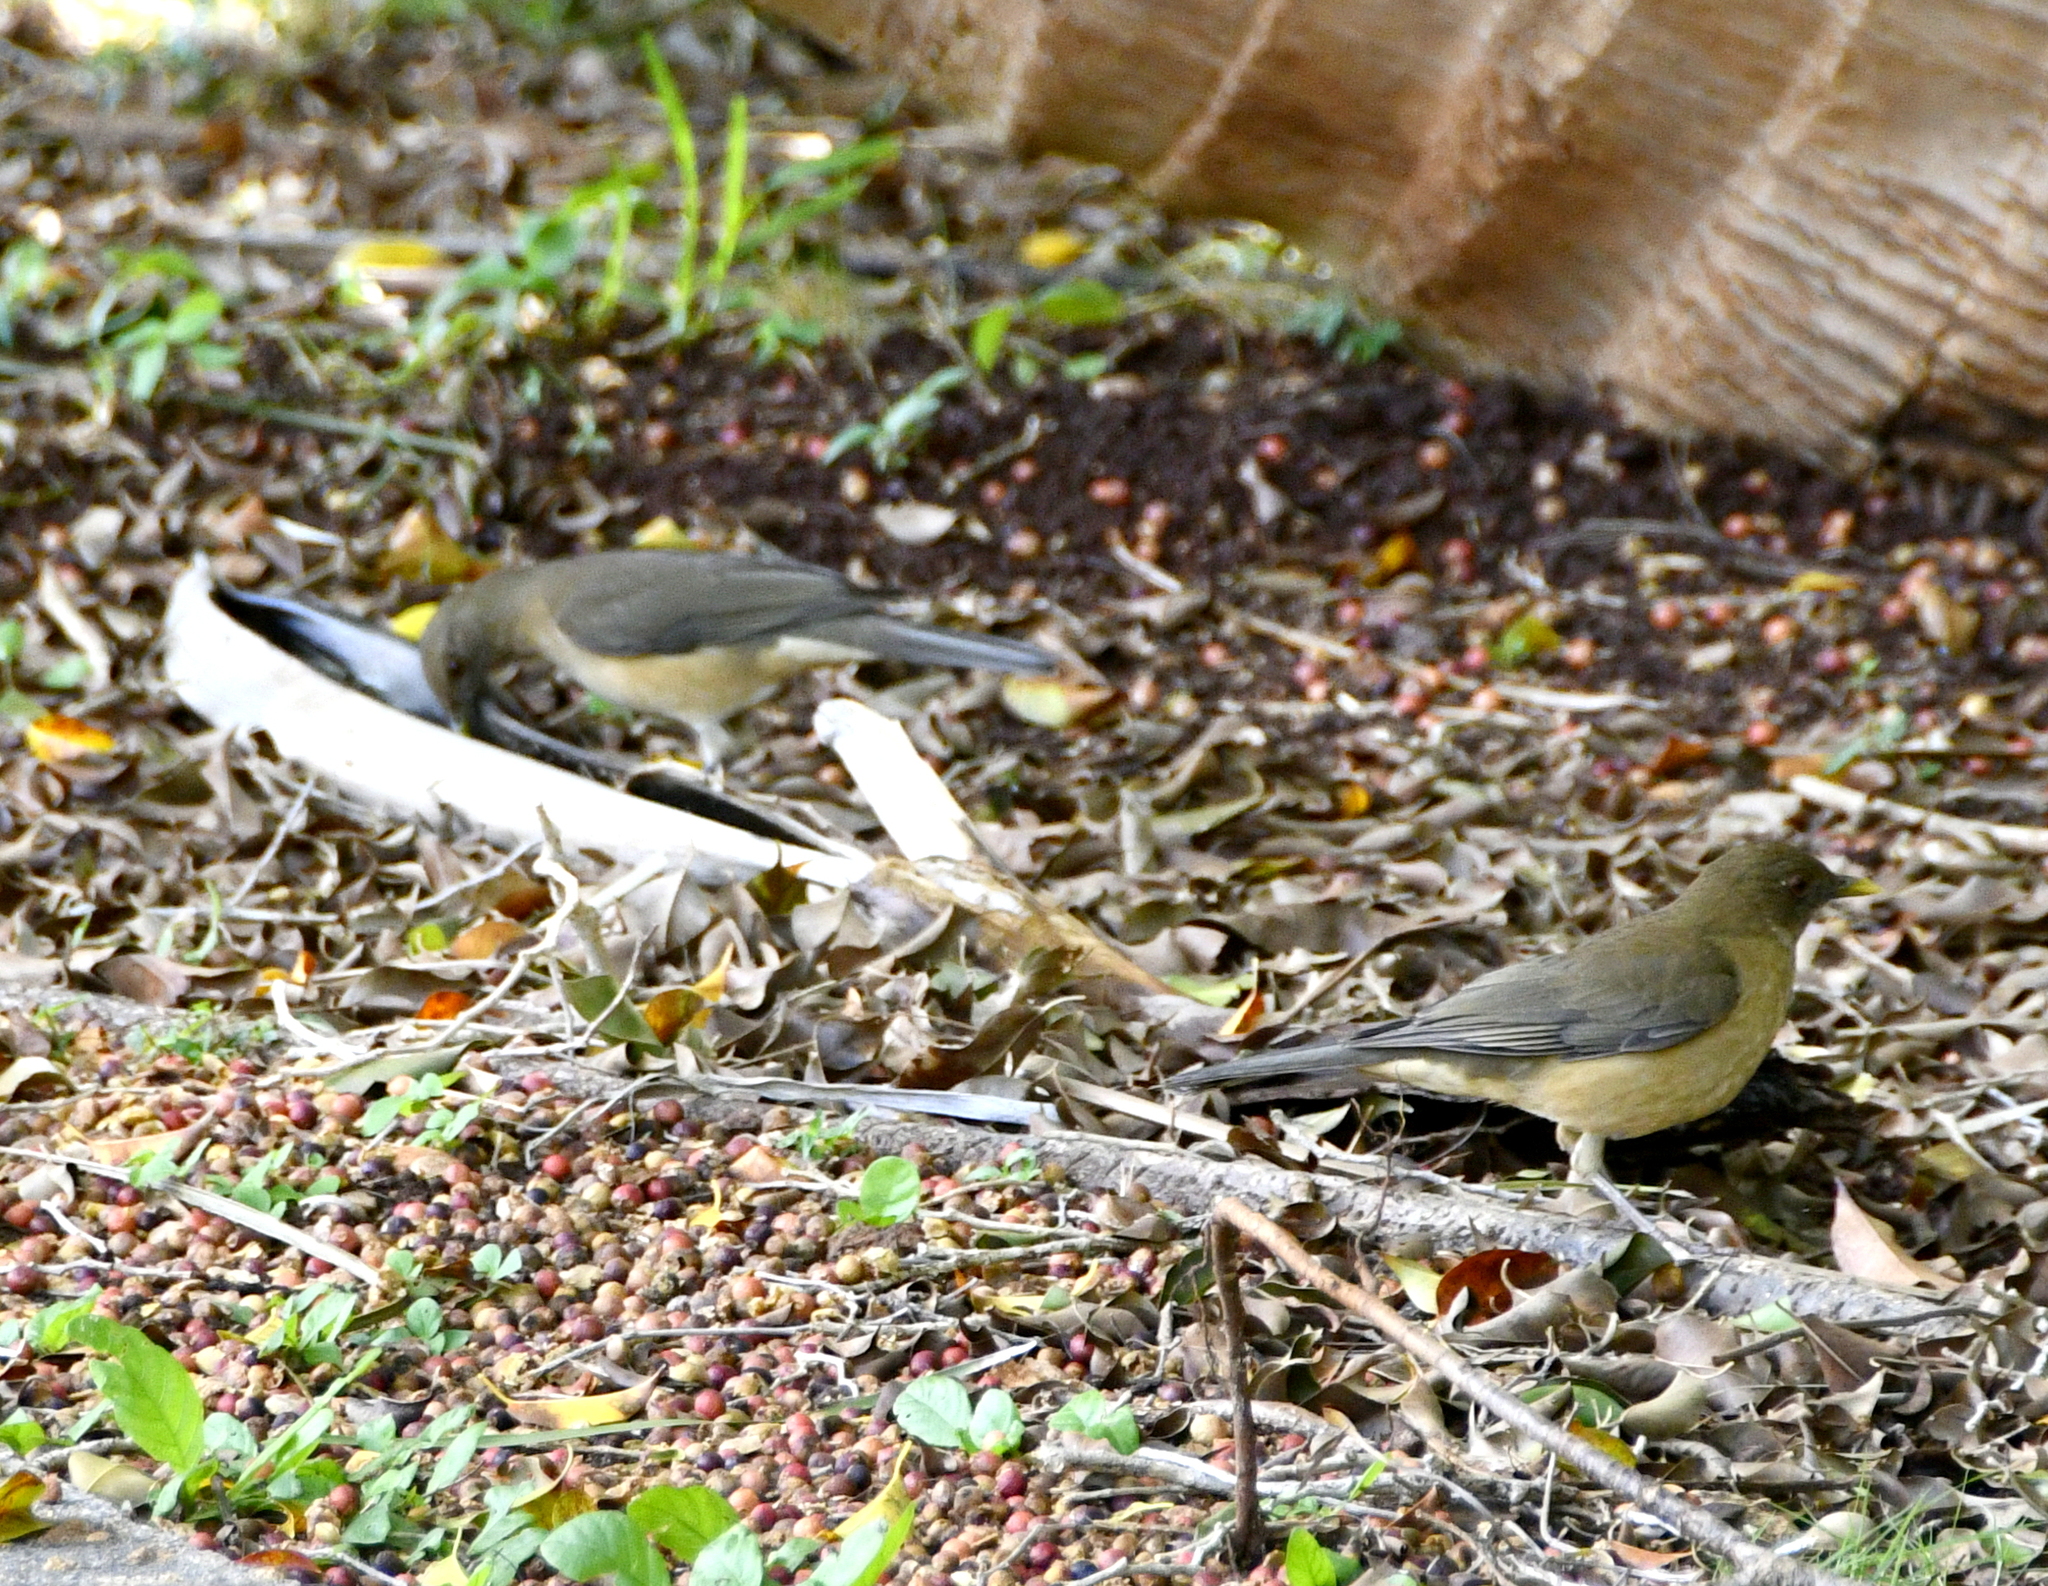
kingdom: Animalia
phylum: Chordata
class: Aves
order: Passeriformes
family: Turdidae
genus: Turdus
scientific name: Turdus grayi
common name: Clay-colored thrush
